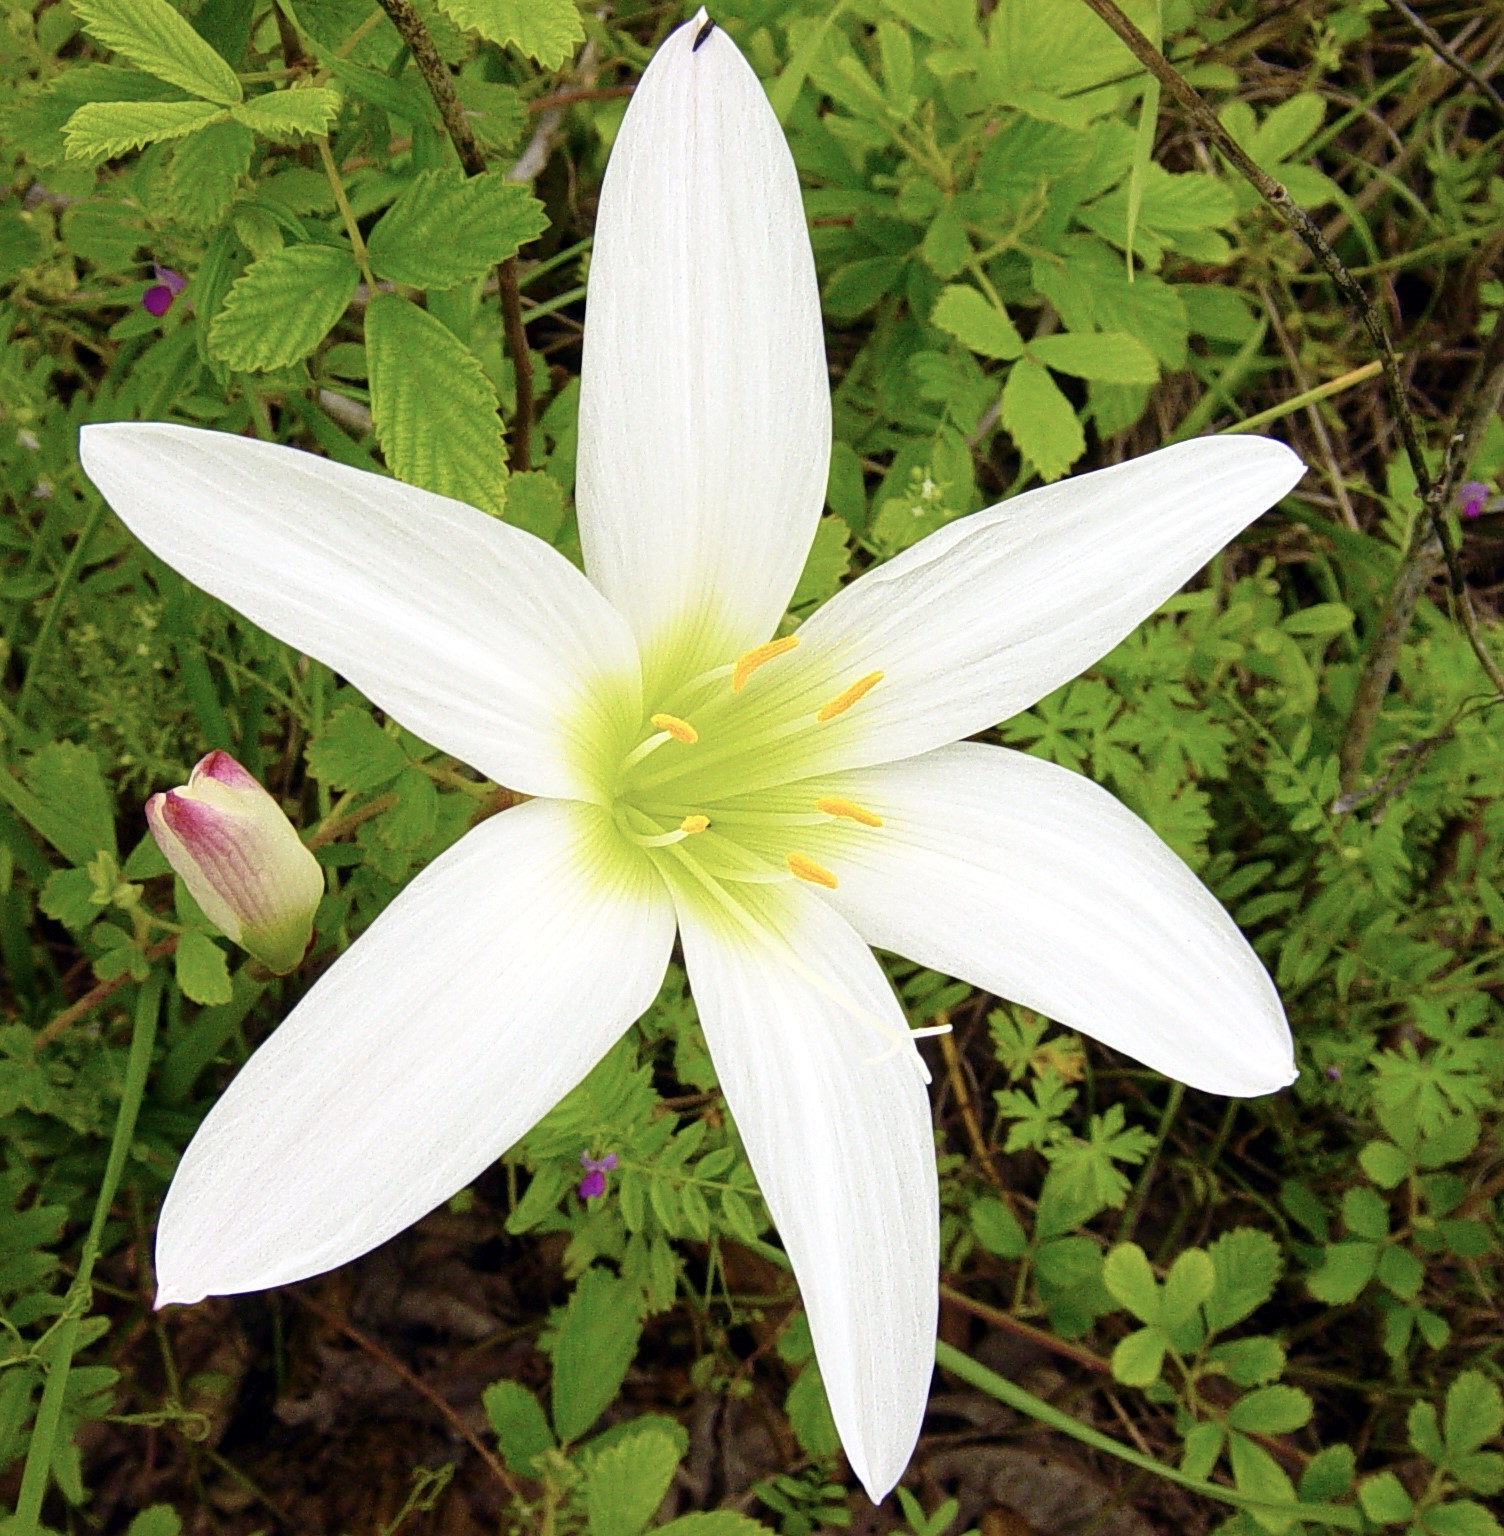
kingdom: Plantae
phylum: Tracheophyta
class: Liliopsida
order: Asparagales
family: Amaryllidaceae
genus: Zephyranthes
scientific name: Zephyranthes atamasco
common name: Atamasco lily
